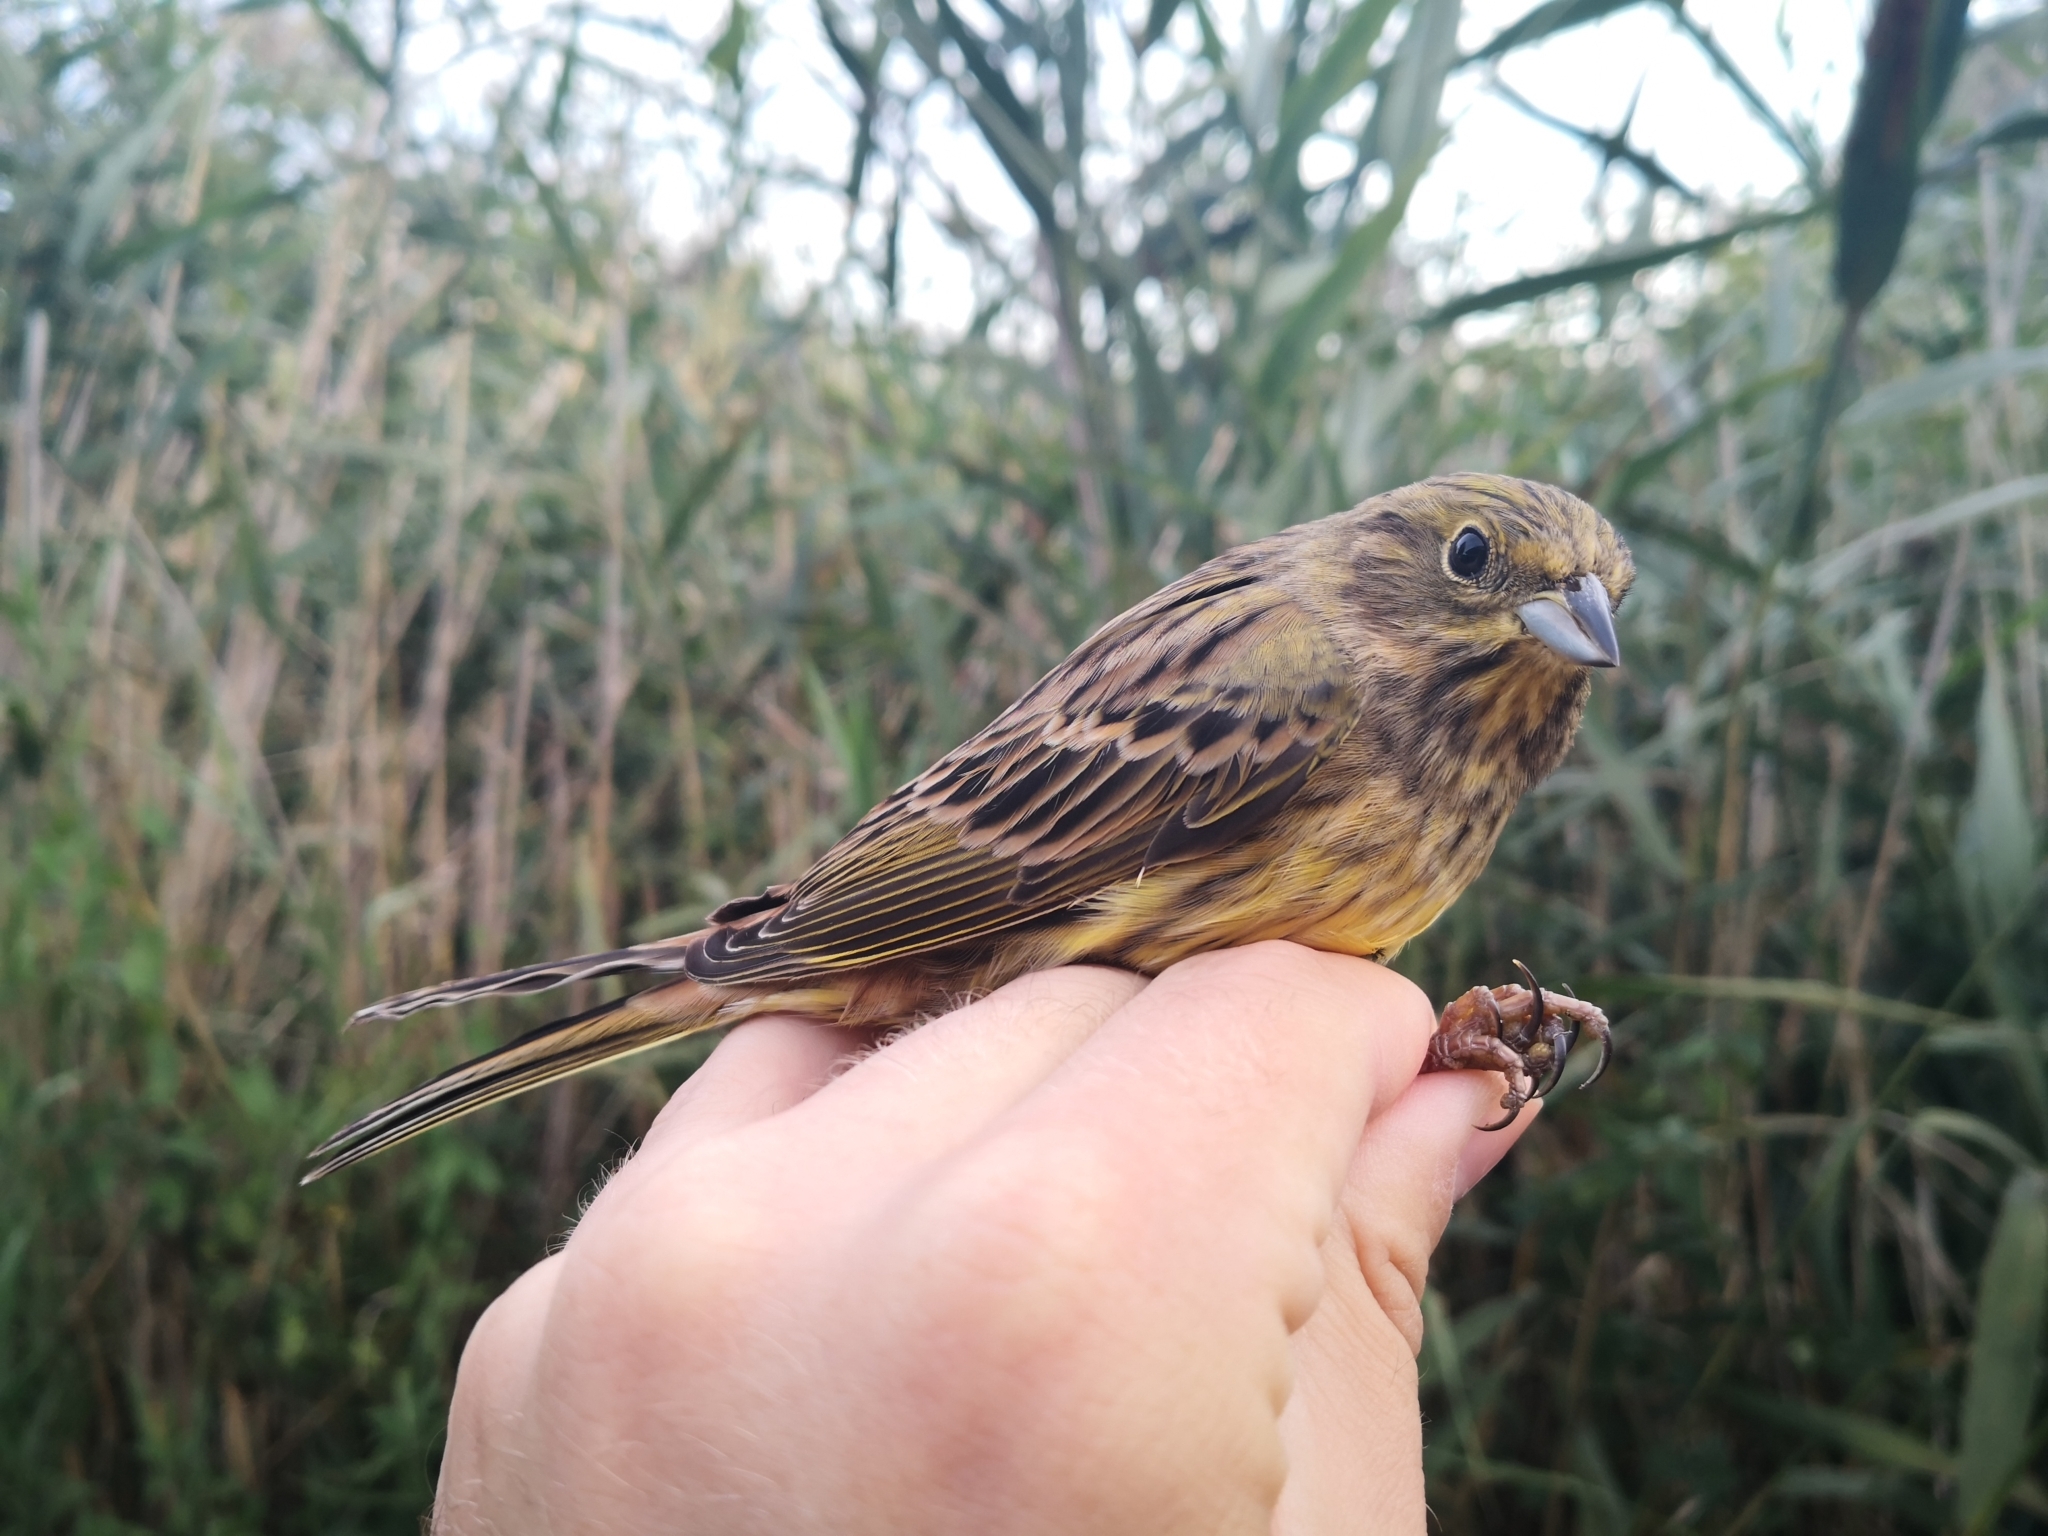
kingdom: Animalia
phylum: Chordata
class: Aves
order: Passeriformes
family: Emberizidae
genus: Emberiza
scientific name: Emberiza citrinella
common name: Yellowhammer
